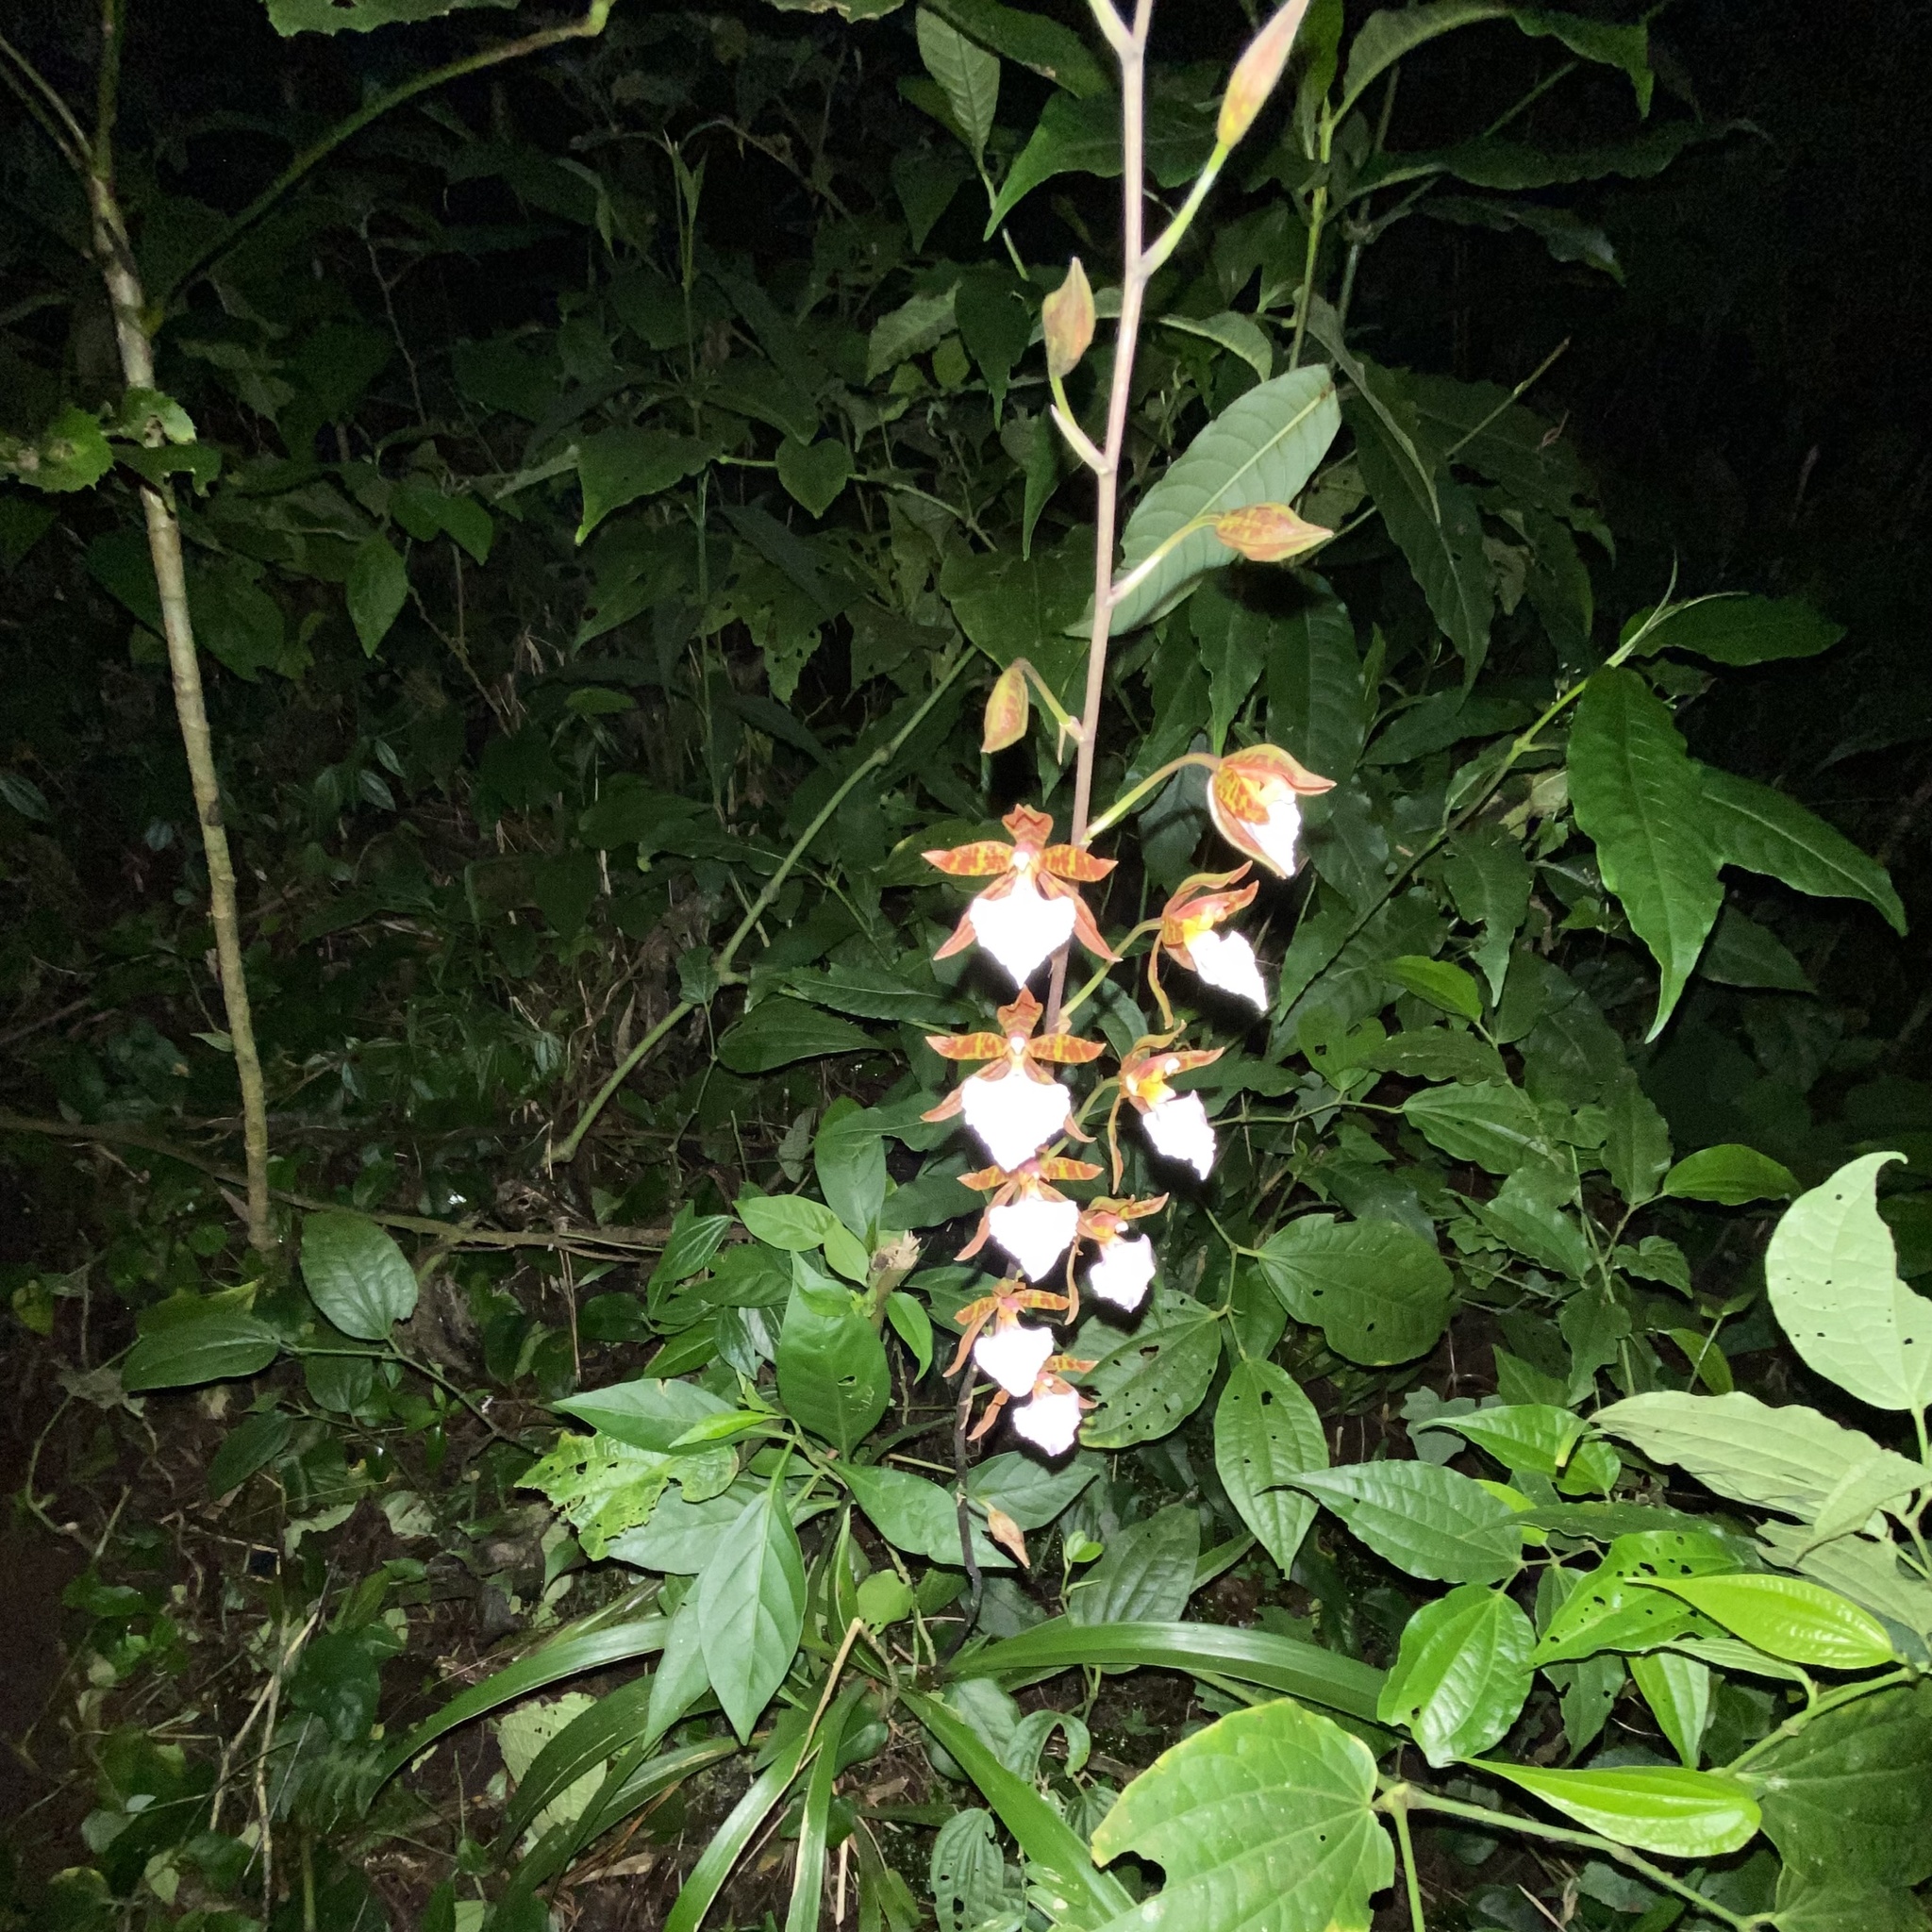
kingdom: Plantae
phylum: Tracheophyta
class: Liliopsida
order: Asparagales
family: Orchidaceae
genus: Rhynchostele
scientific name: Rhynchostele bictoniensis
